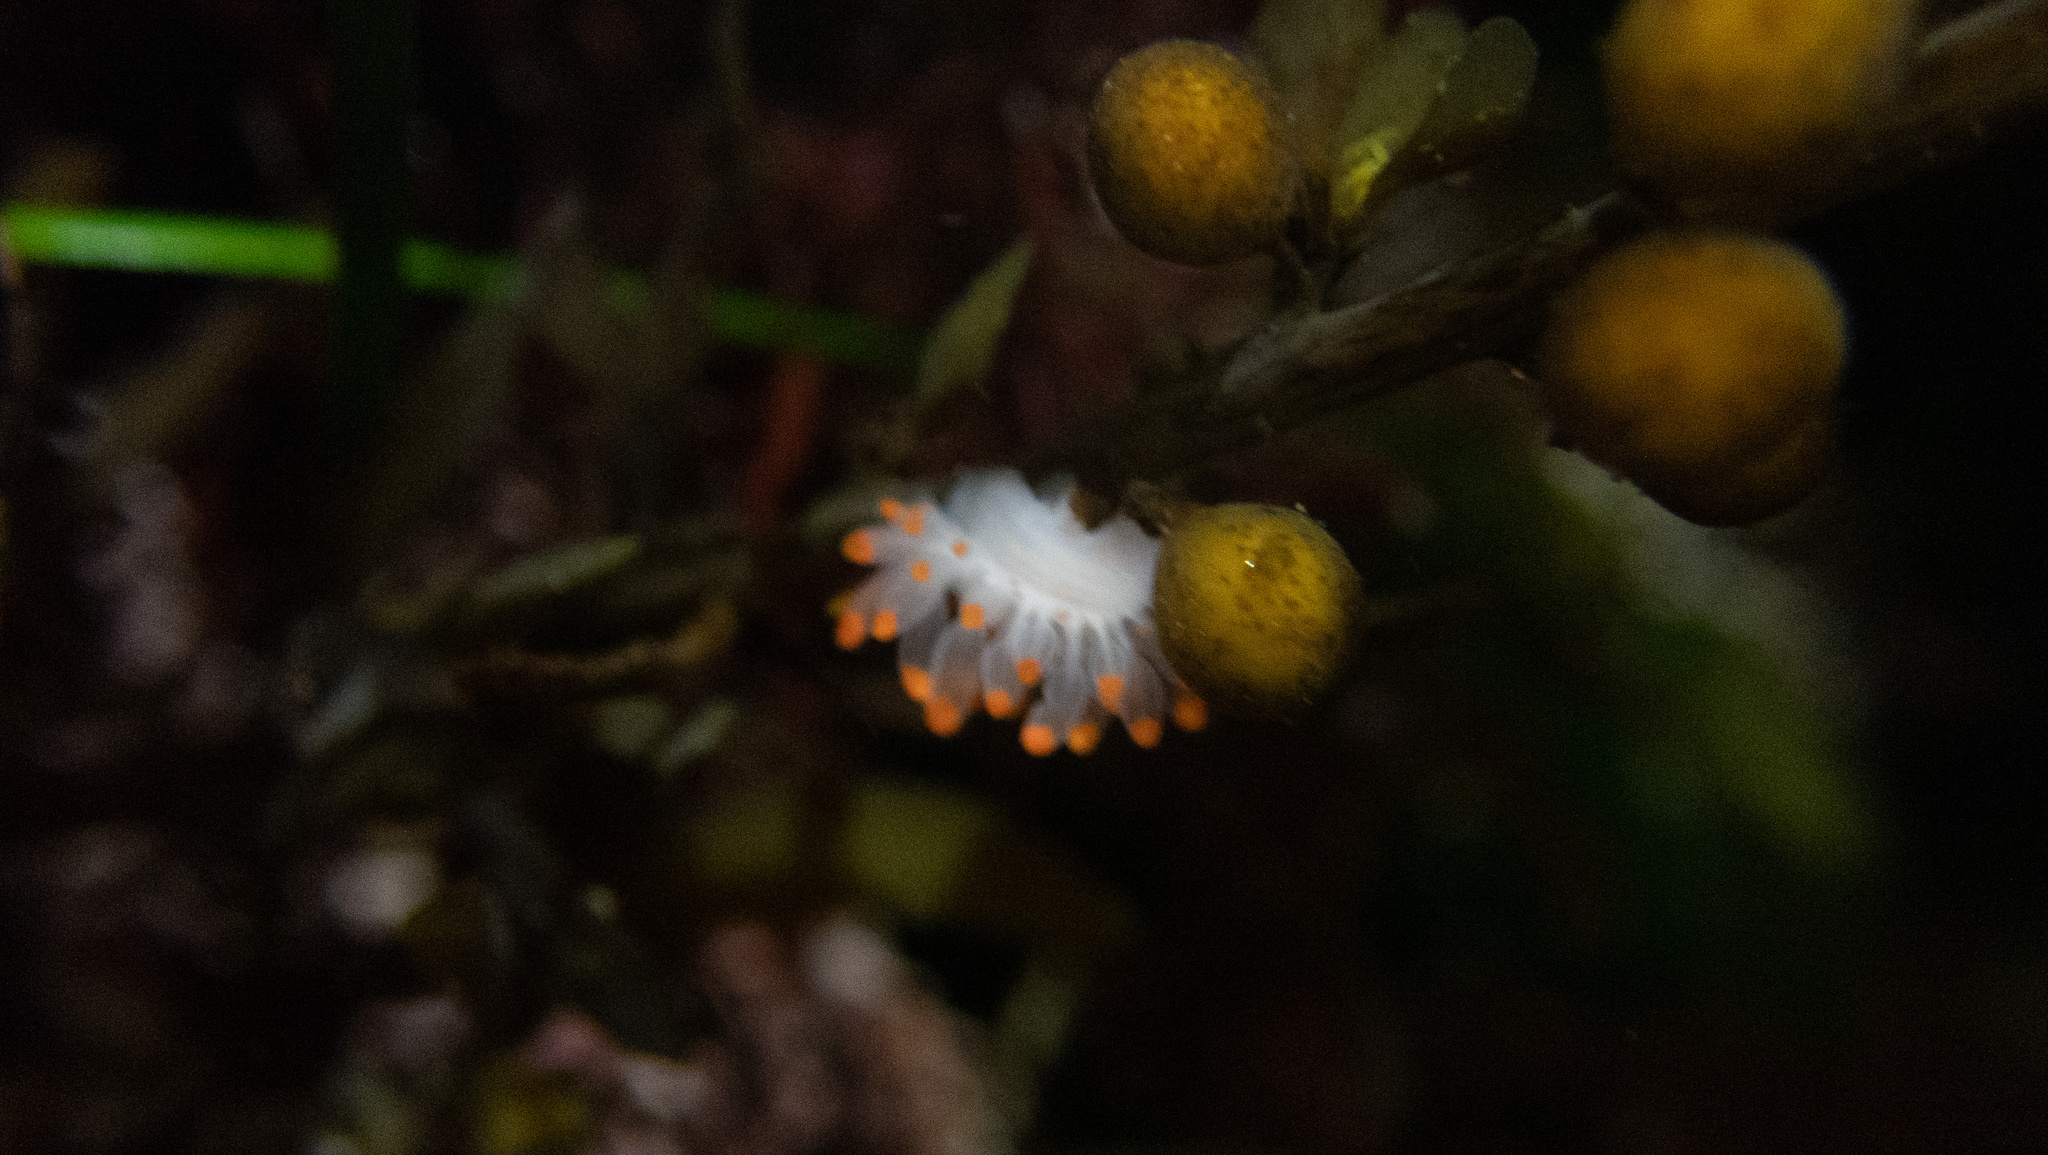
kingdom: Animalia
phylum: Mollusca
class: Gastropoda
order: Nudibranchia
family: Polyceridae
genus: Limacia
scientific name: Limacia mcdonaldi
